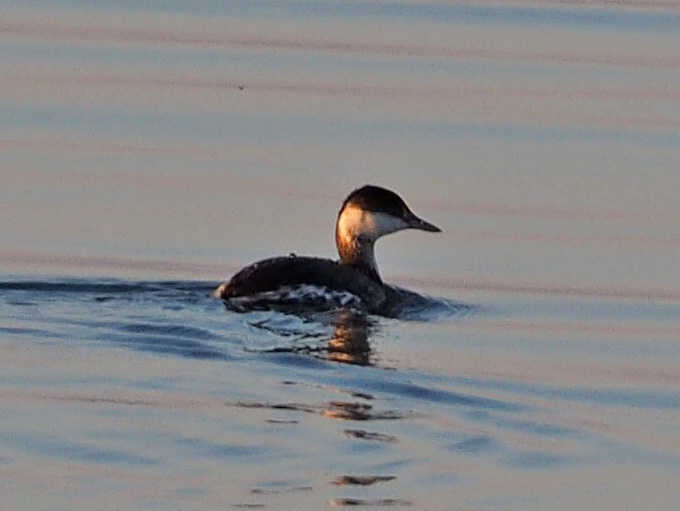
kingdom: Animalia
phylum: Chordata
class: Aves
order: Podicipediformes
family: Podicipedidae
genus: Podiceps
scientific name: Podiceps auritus
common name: Horned grebe
